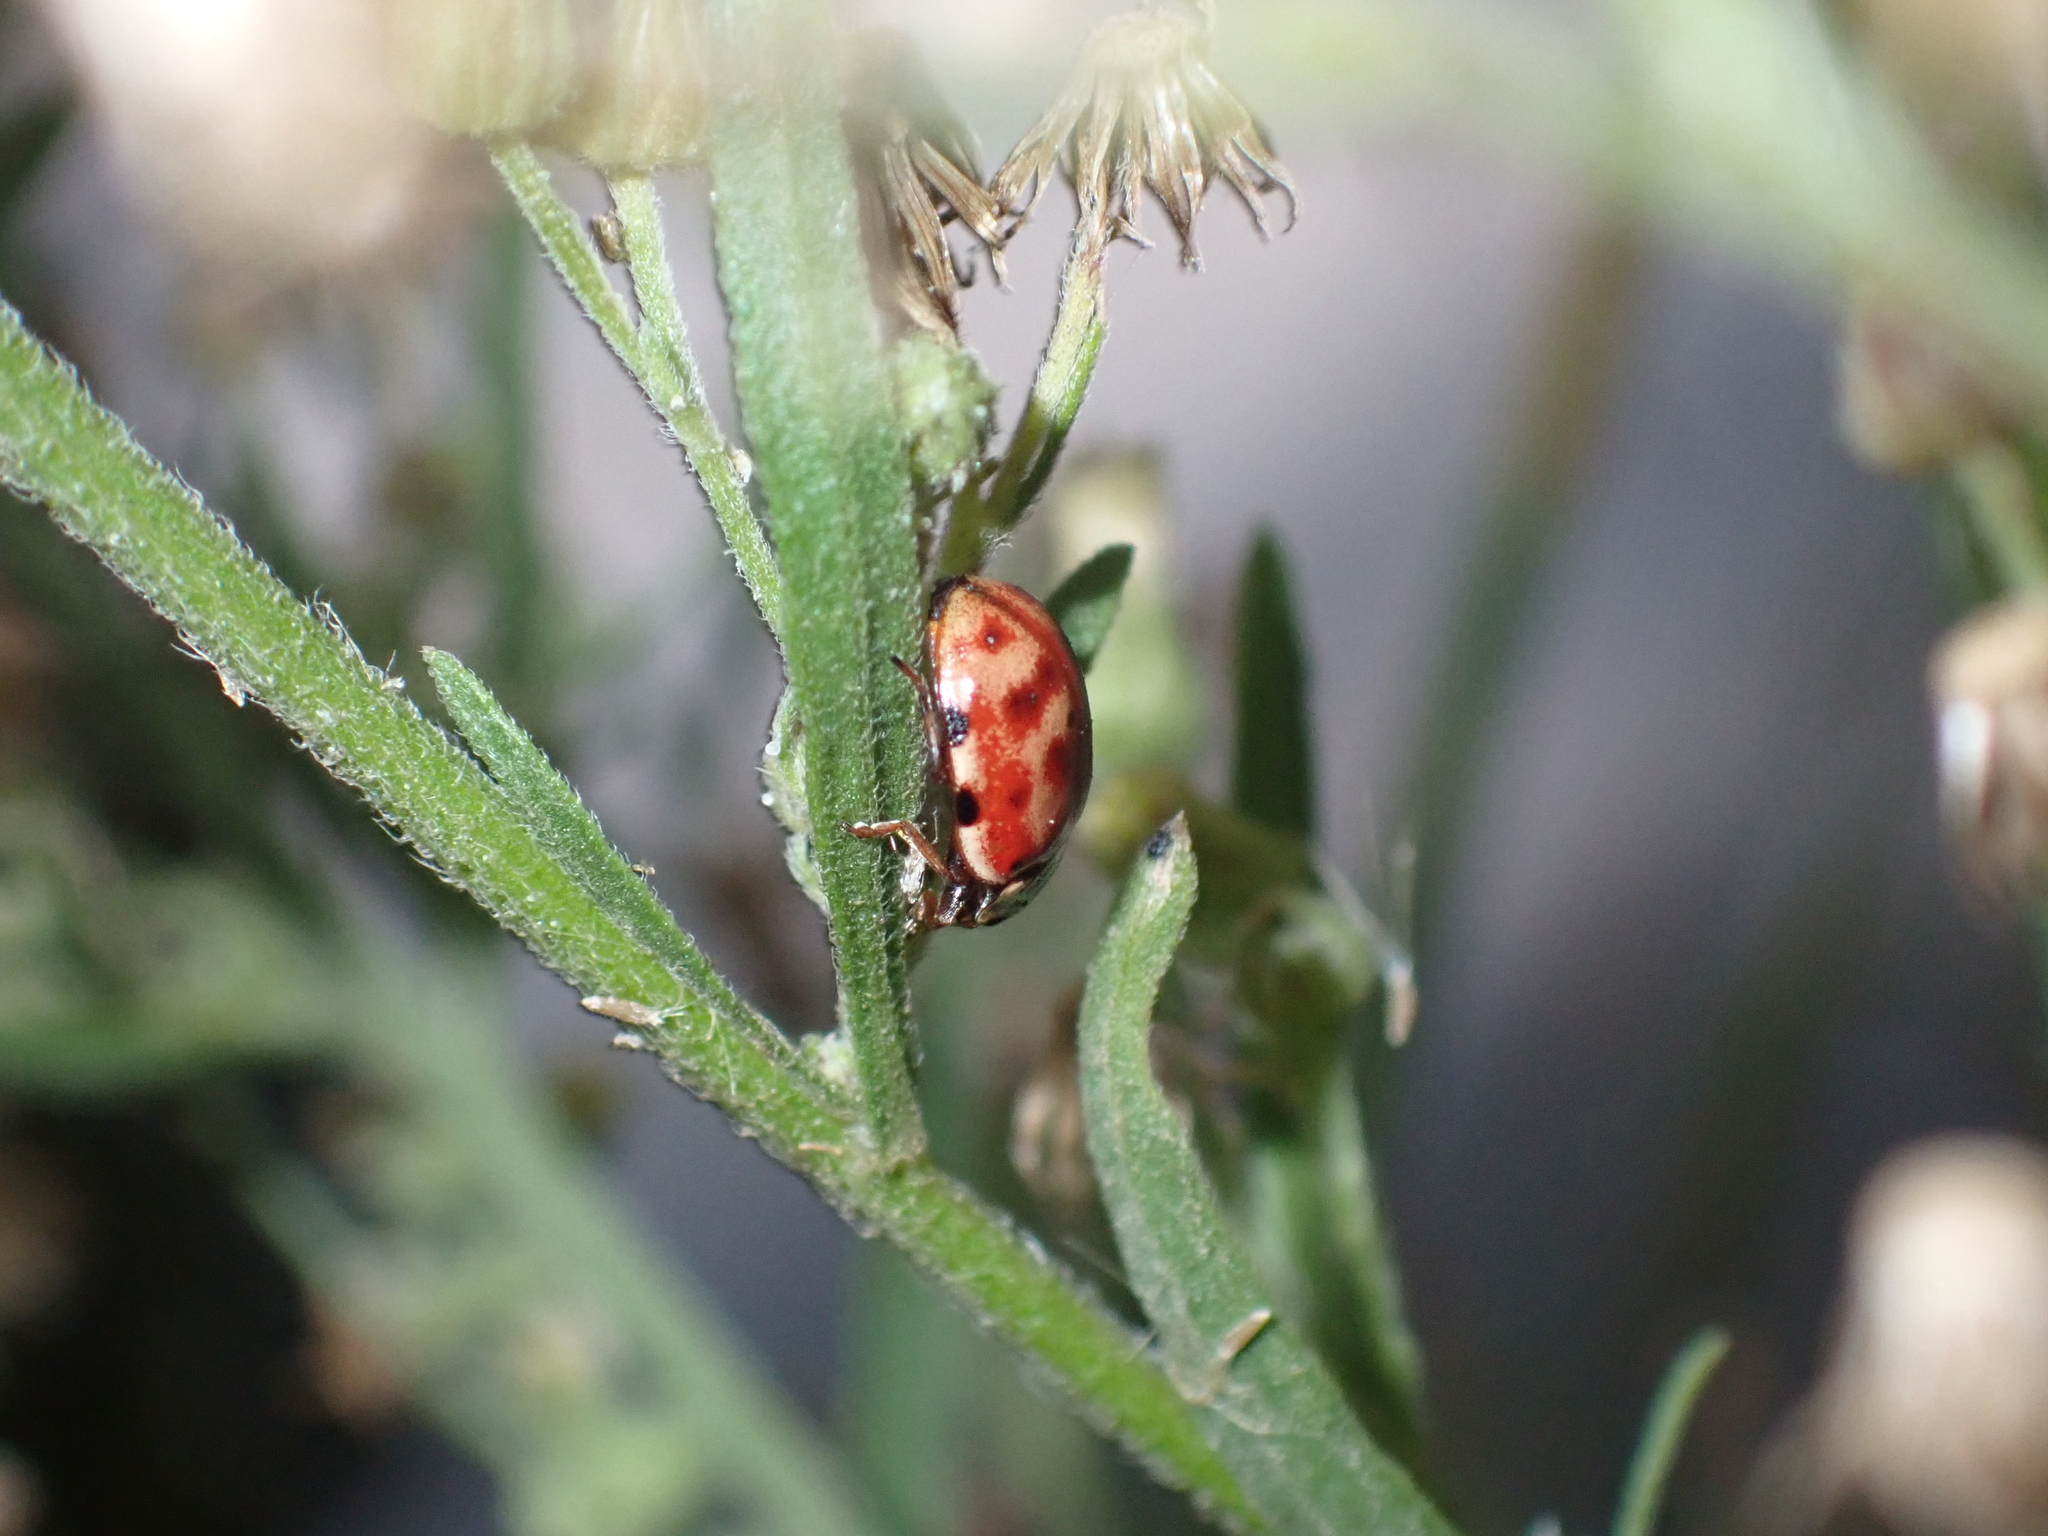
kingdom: Animalia
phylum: Arthropoda
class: Insecta
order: Coleoptera
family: Coccinellidae
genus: Harmonia
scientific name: Harmonia quadripunctata
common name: Cream-streaked ladybird
